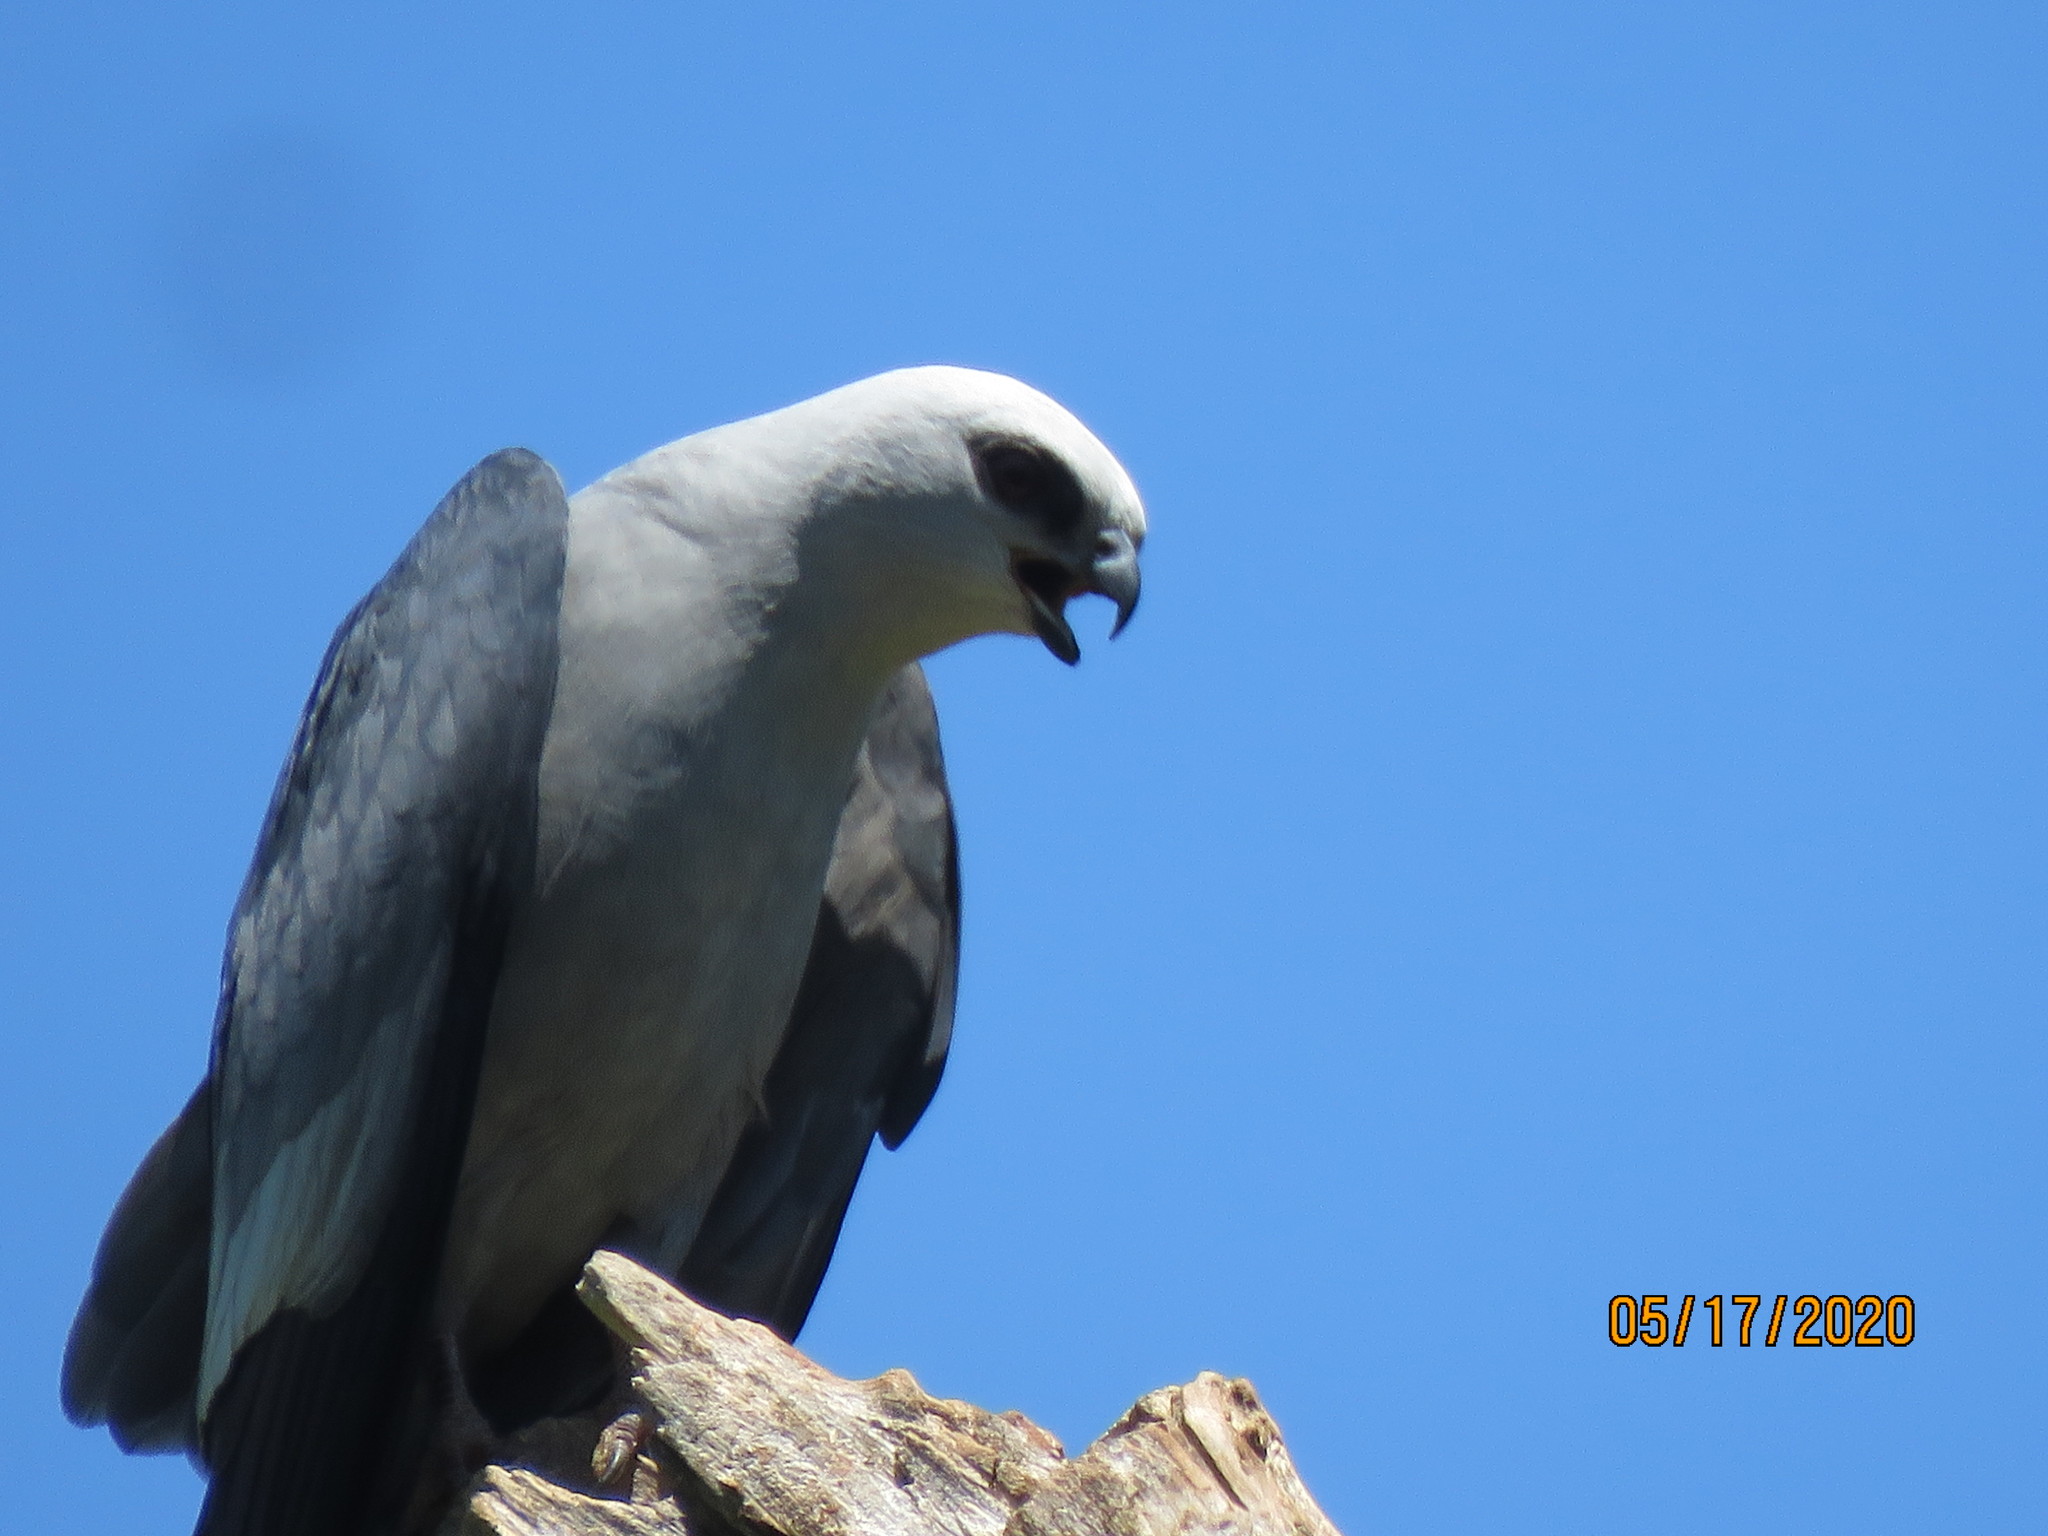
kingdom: Animalia
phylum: Chordata
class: Aves
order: Accipitriformes
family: Accipitridae
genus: Ictinia
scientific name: Ictinia mississippiensis
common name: Mississippi kite
